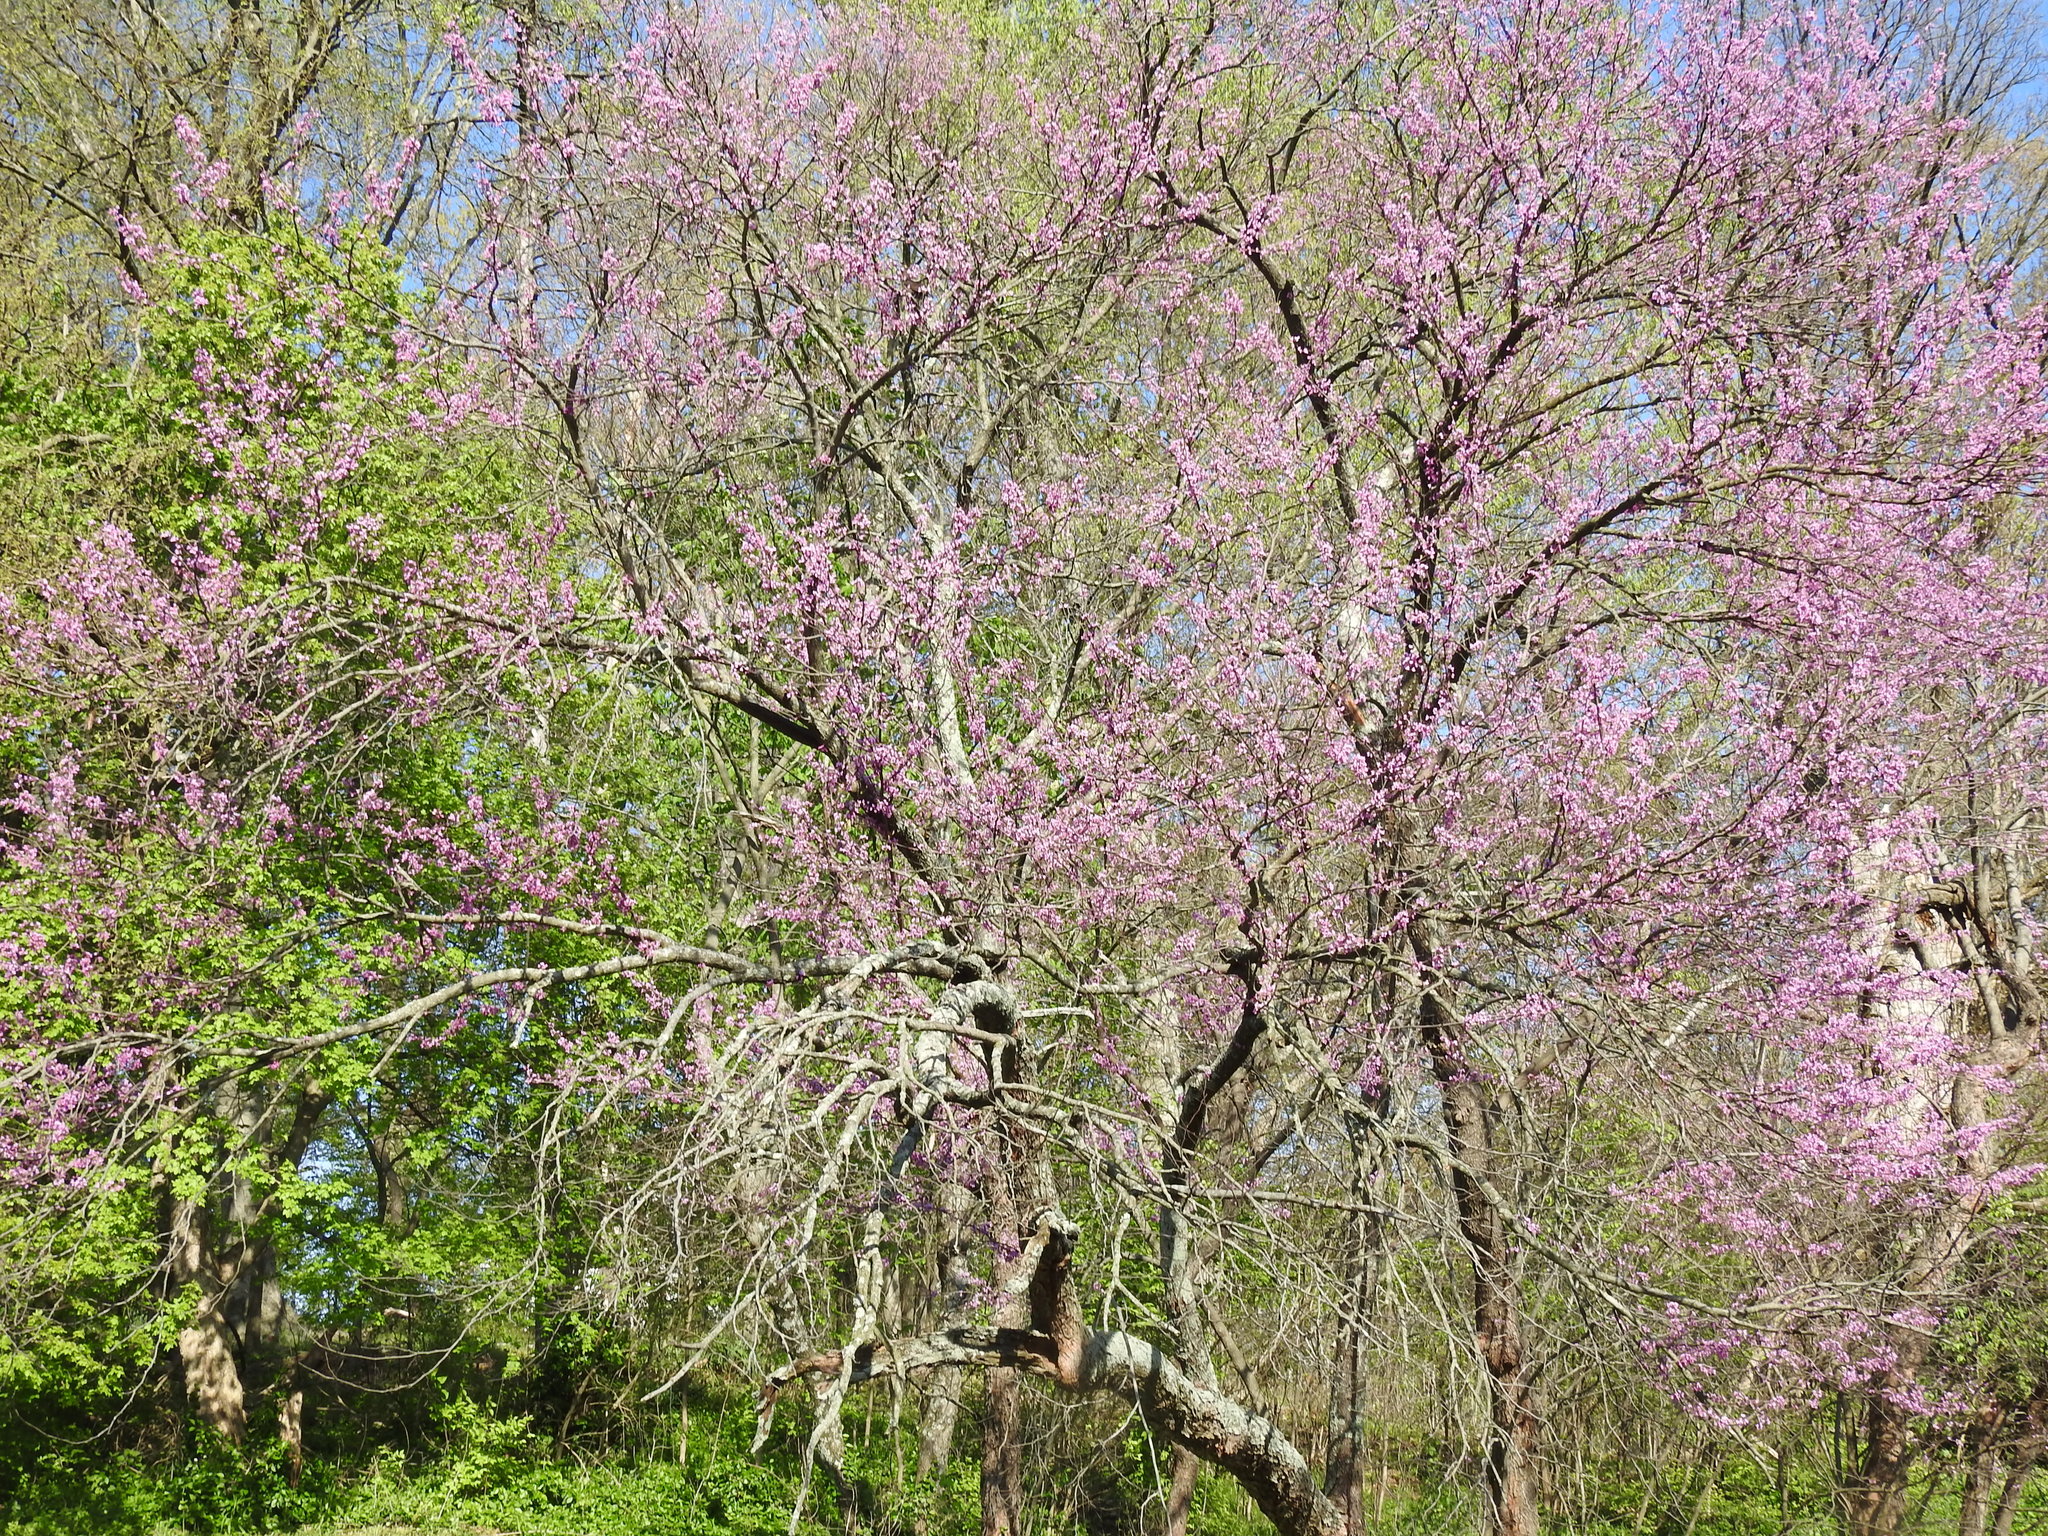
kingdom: Plantae
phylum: Tracheophyta
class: Magnoliopsida
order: Fabales
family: Fabaceae
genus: Cercis
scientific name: Cercis canadensis
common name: Eastern redbud
